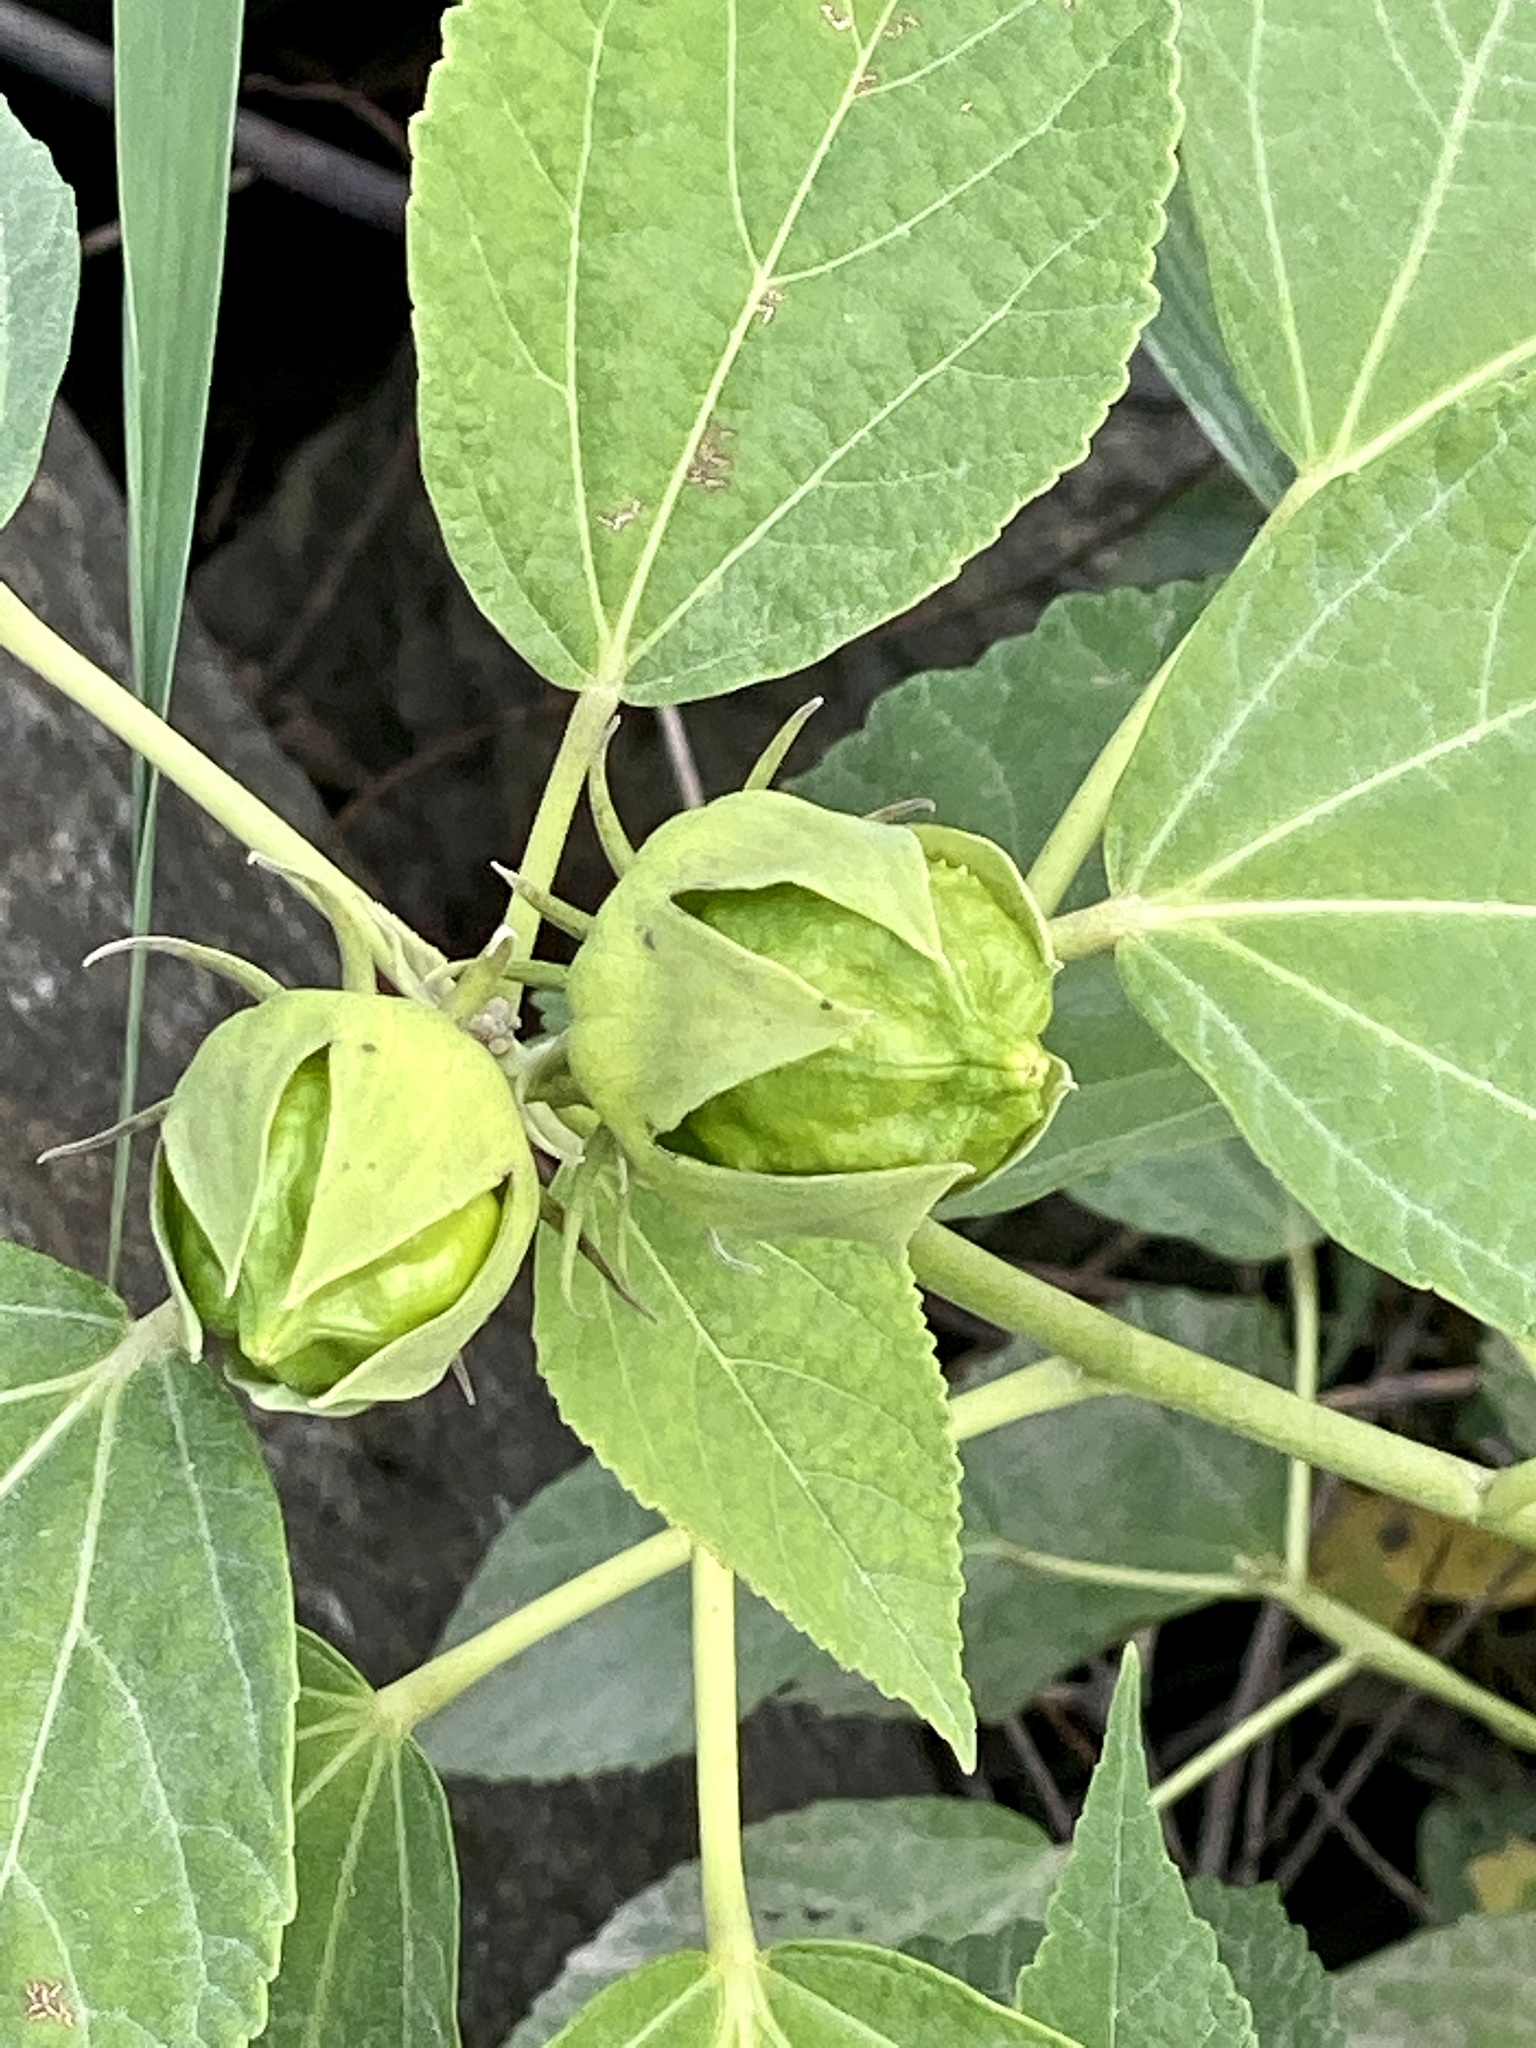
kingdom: Plantae
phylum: Tracheophyta
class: Magnoliopsida
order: Malvales
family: Malvaceae
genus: Hibiscus
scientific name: Hibiscus moscheutos
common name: Common rose-mallow
